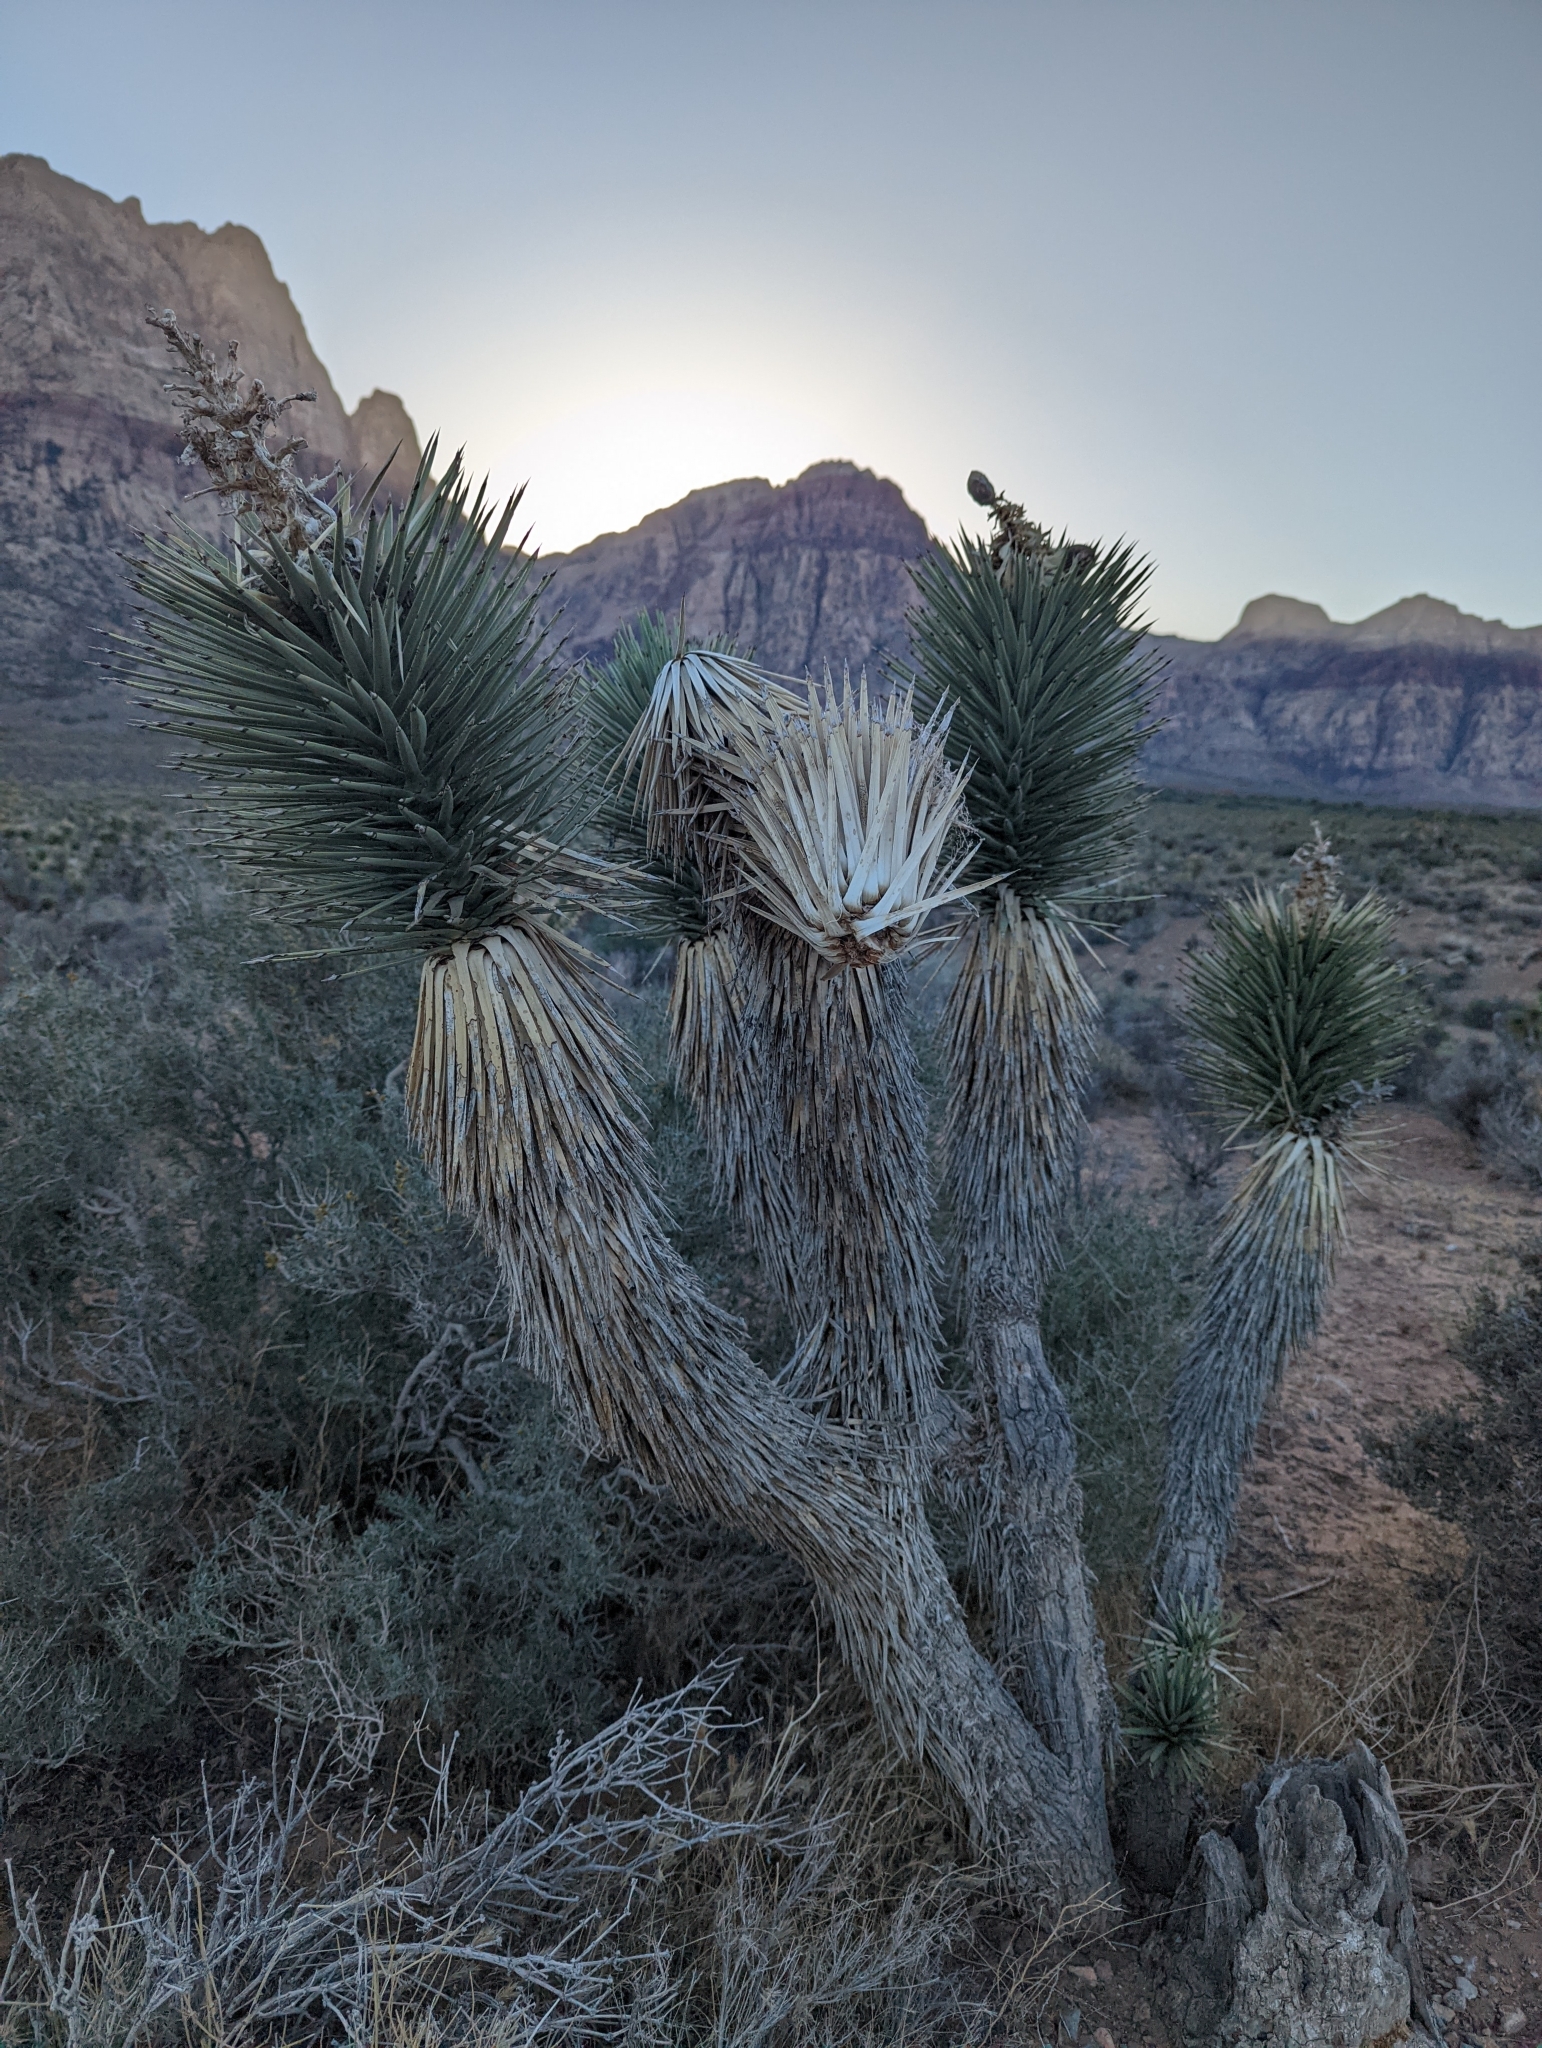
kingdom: Plantae
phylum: Tracheophyta
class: Liliopsida
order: Asparagales
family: Asparagaceae
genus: Yucca
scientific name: Yucca brevifolia
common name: Joshua tree
